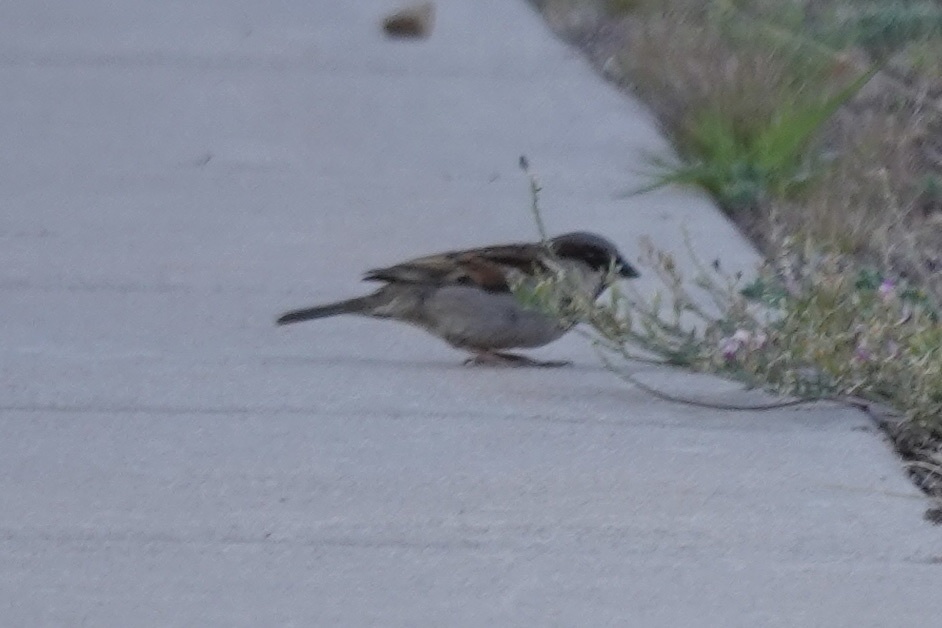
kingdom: Animalia
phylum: Chordata
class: Aves
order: Passeriformes
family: Passeridae
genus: Passer
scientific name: Passer domesticus
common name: House sparrow
